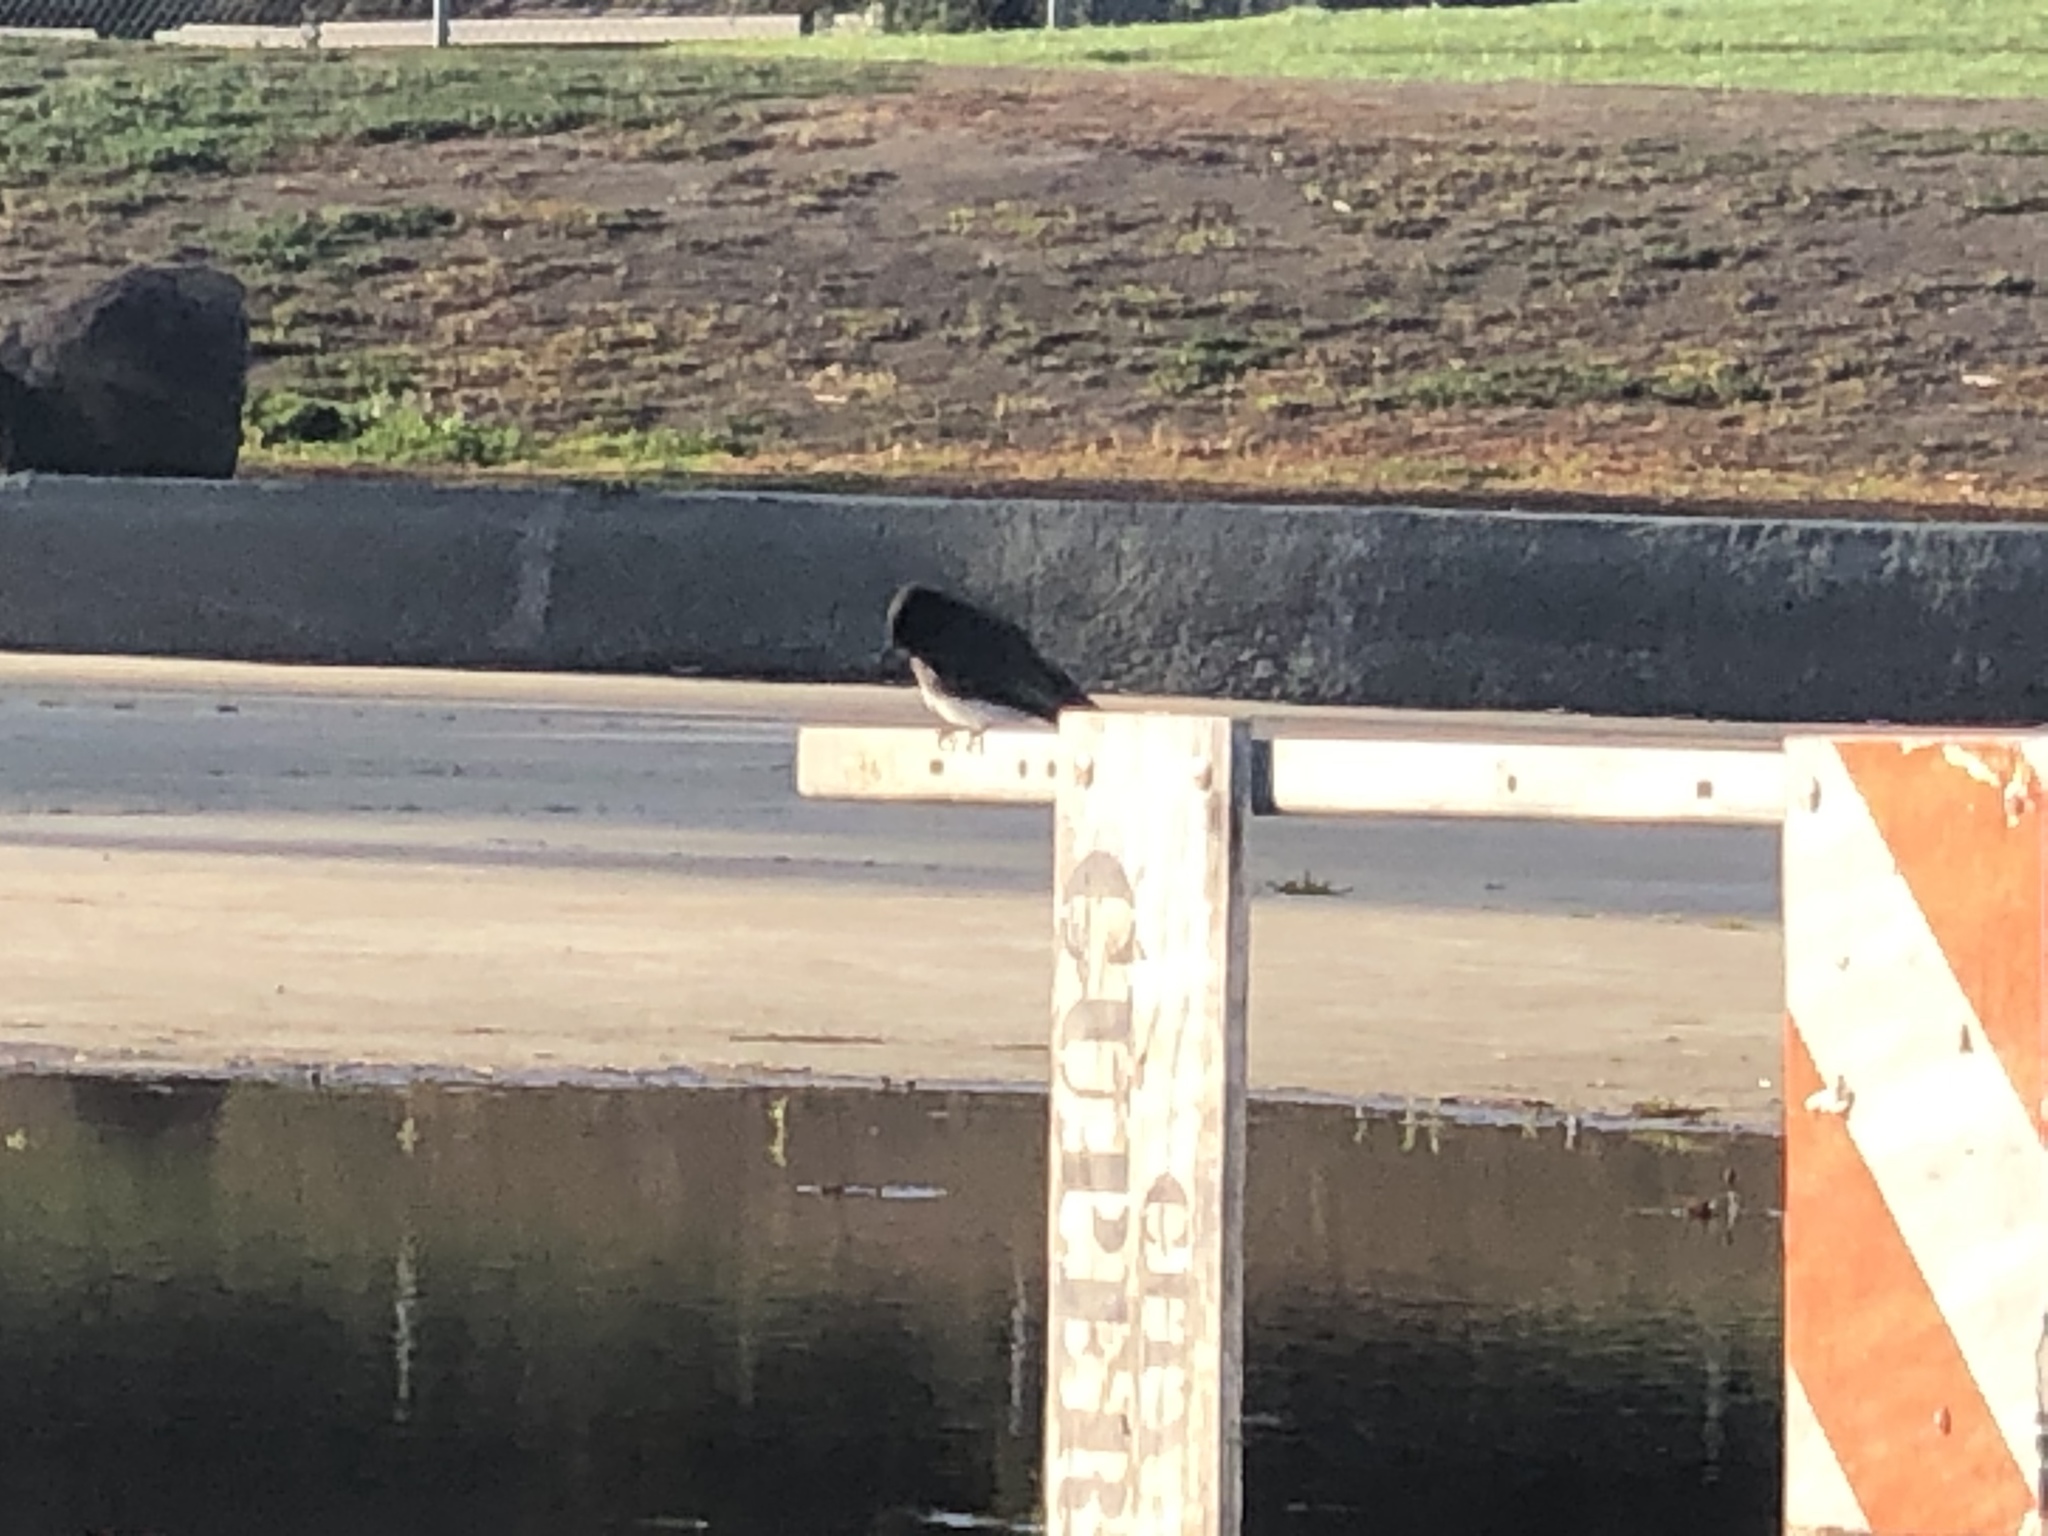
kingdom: Animalia
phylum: Chordata
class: Aves
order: Passeriformes
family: Tyrannidae
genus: Sayornis
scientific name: Sayornis nigricans
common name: Black phoebe
